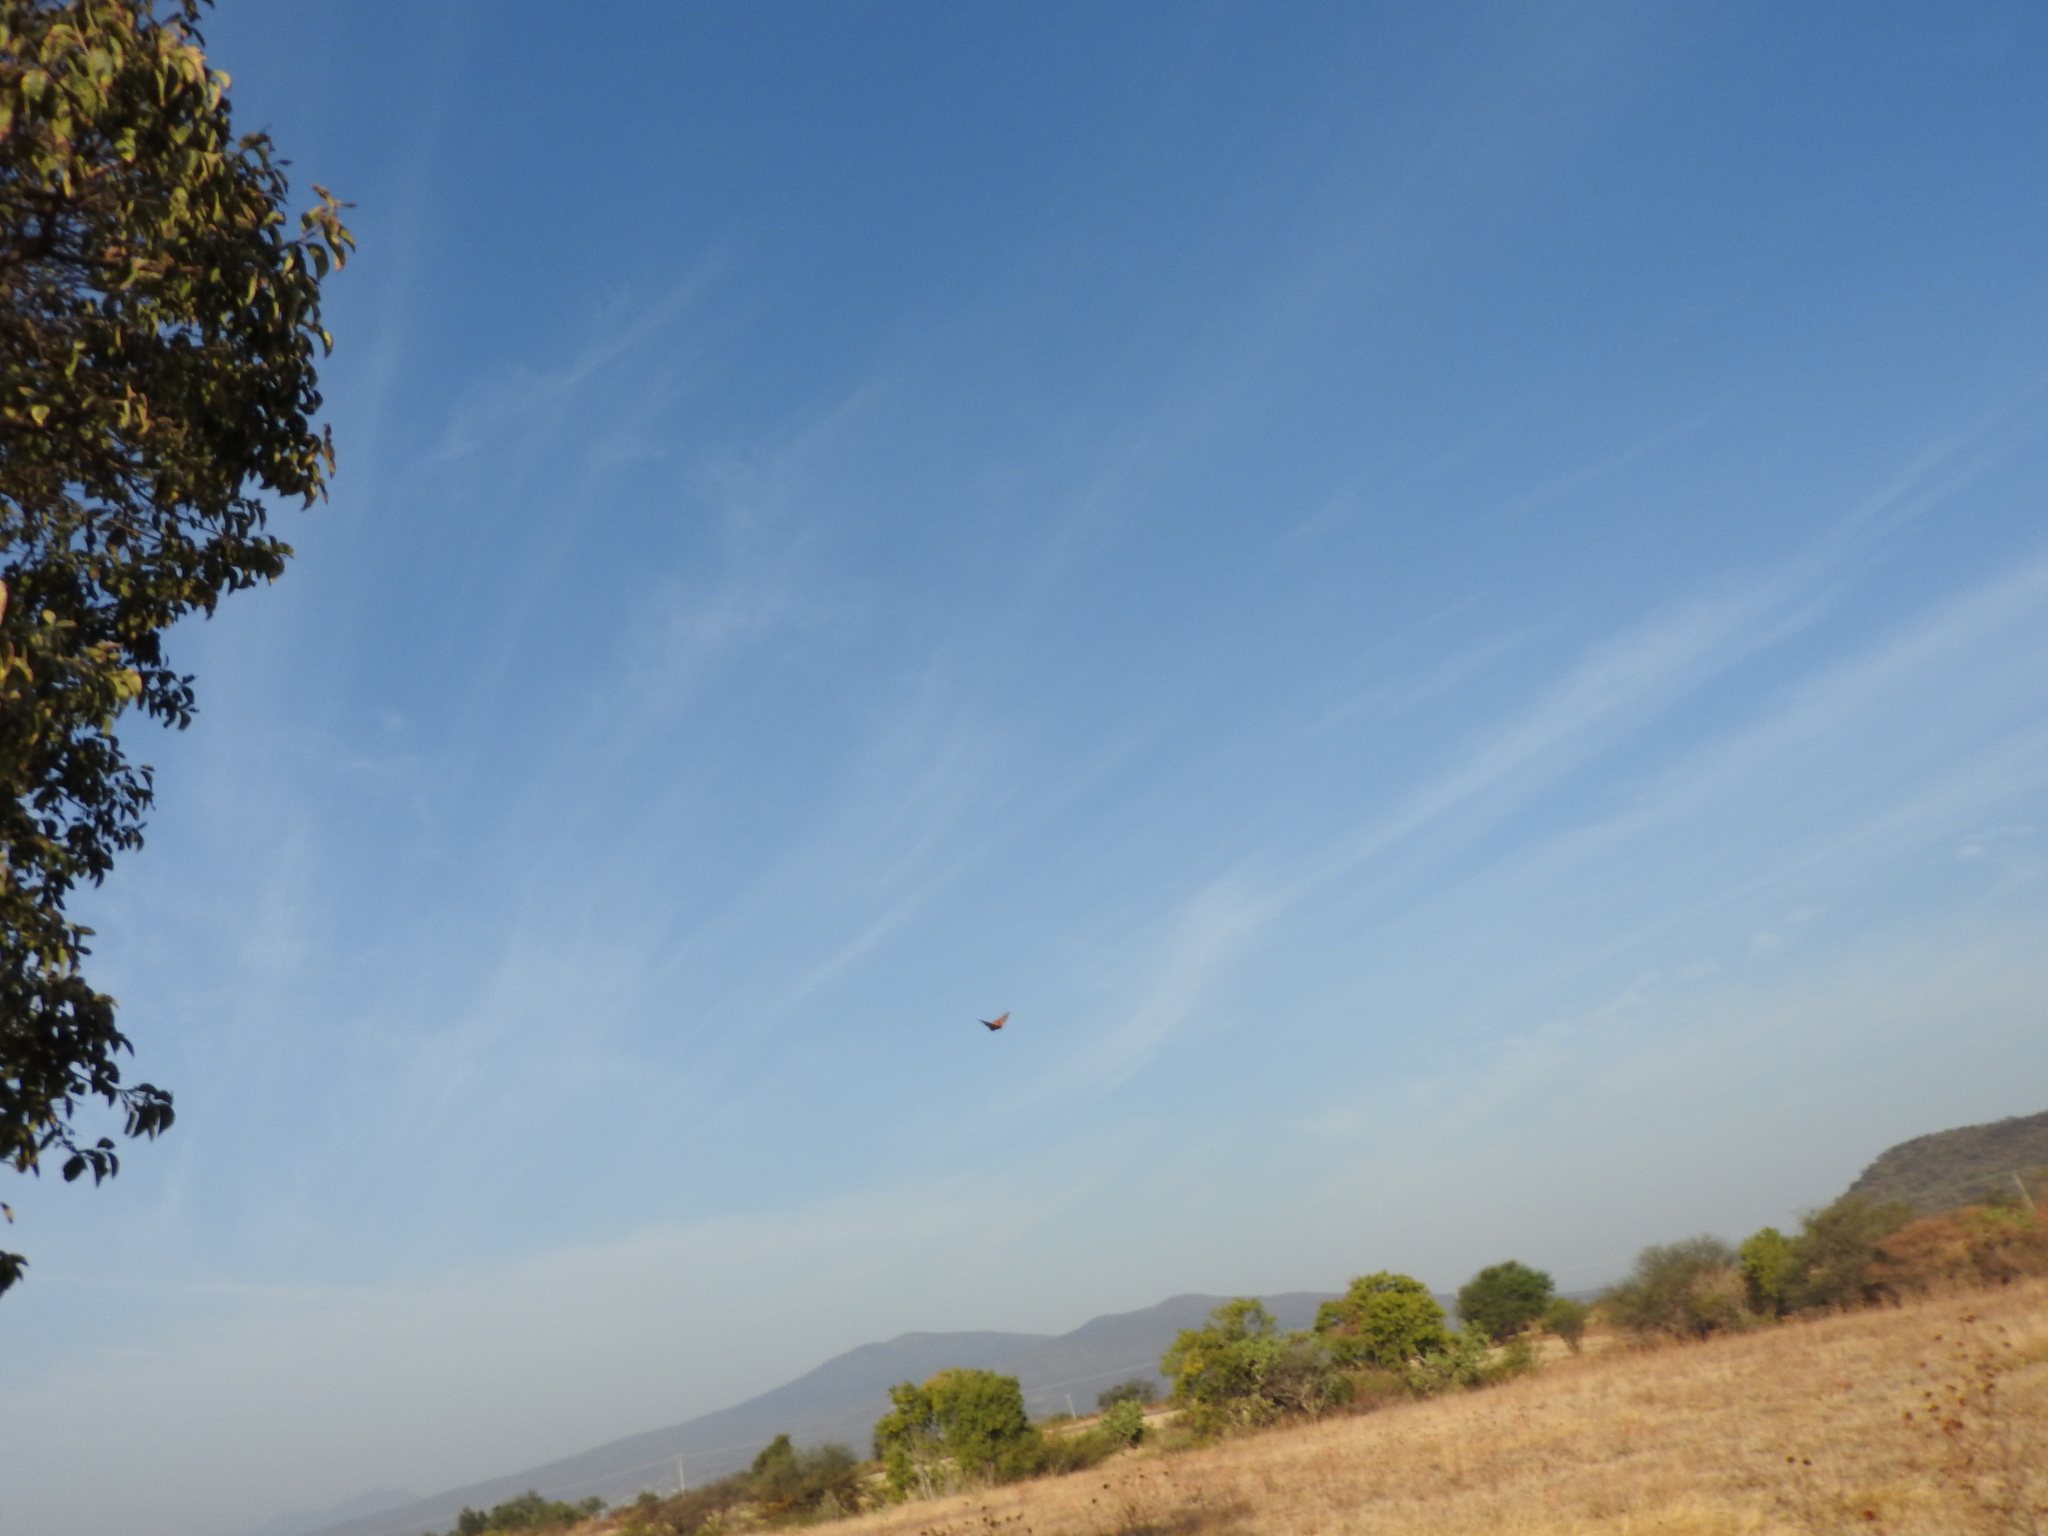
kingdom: Animalia
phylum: Arthropoda
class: Insecta
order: Lepidoptera
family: Nymphalidae
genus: Danaus
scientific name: Danaus plexippus
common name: Monarch
